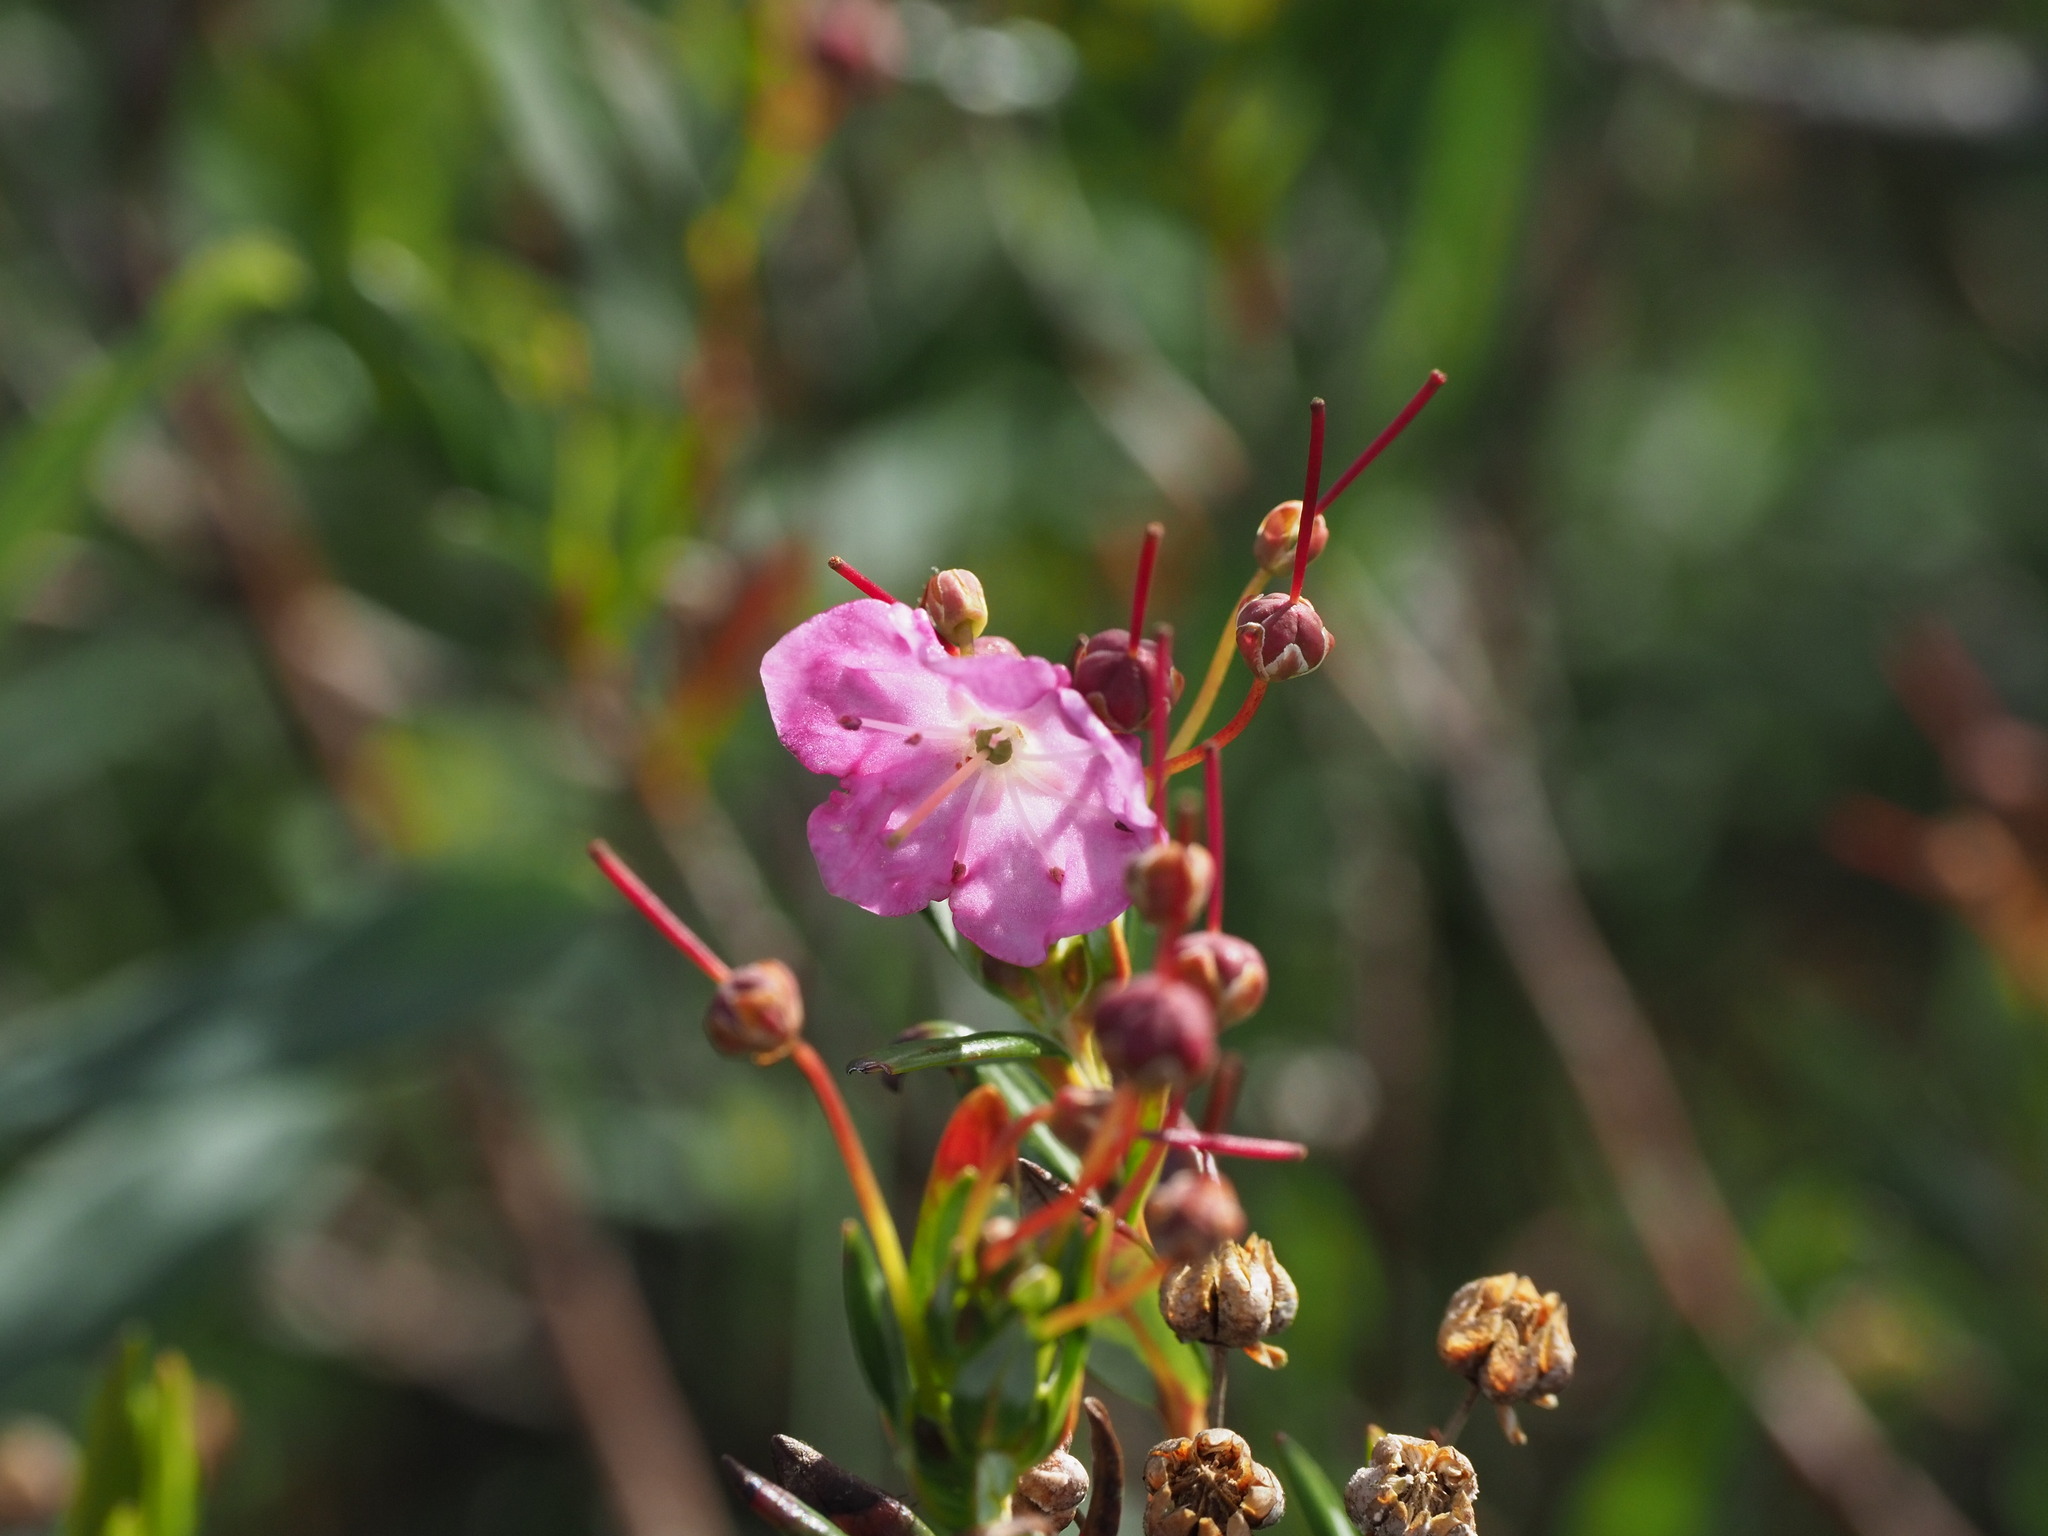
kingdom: Plantae
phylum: Tracheophyta
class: Magnoliopsida
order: Ericales
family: Ericaceae
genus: Kalmia
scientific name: Kalmia microphylla
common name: Alpine bog laurel
